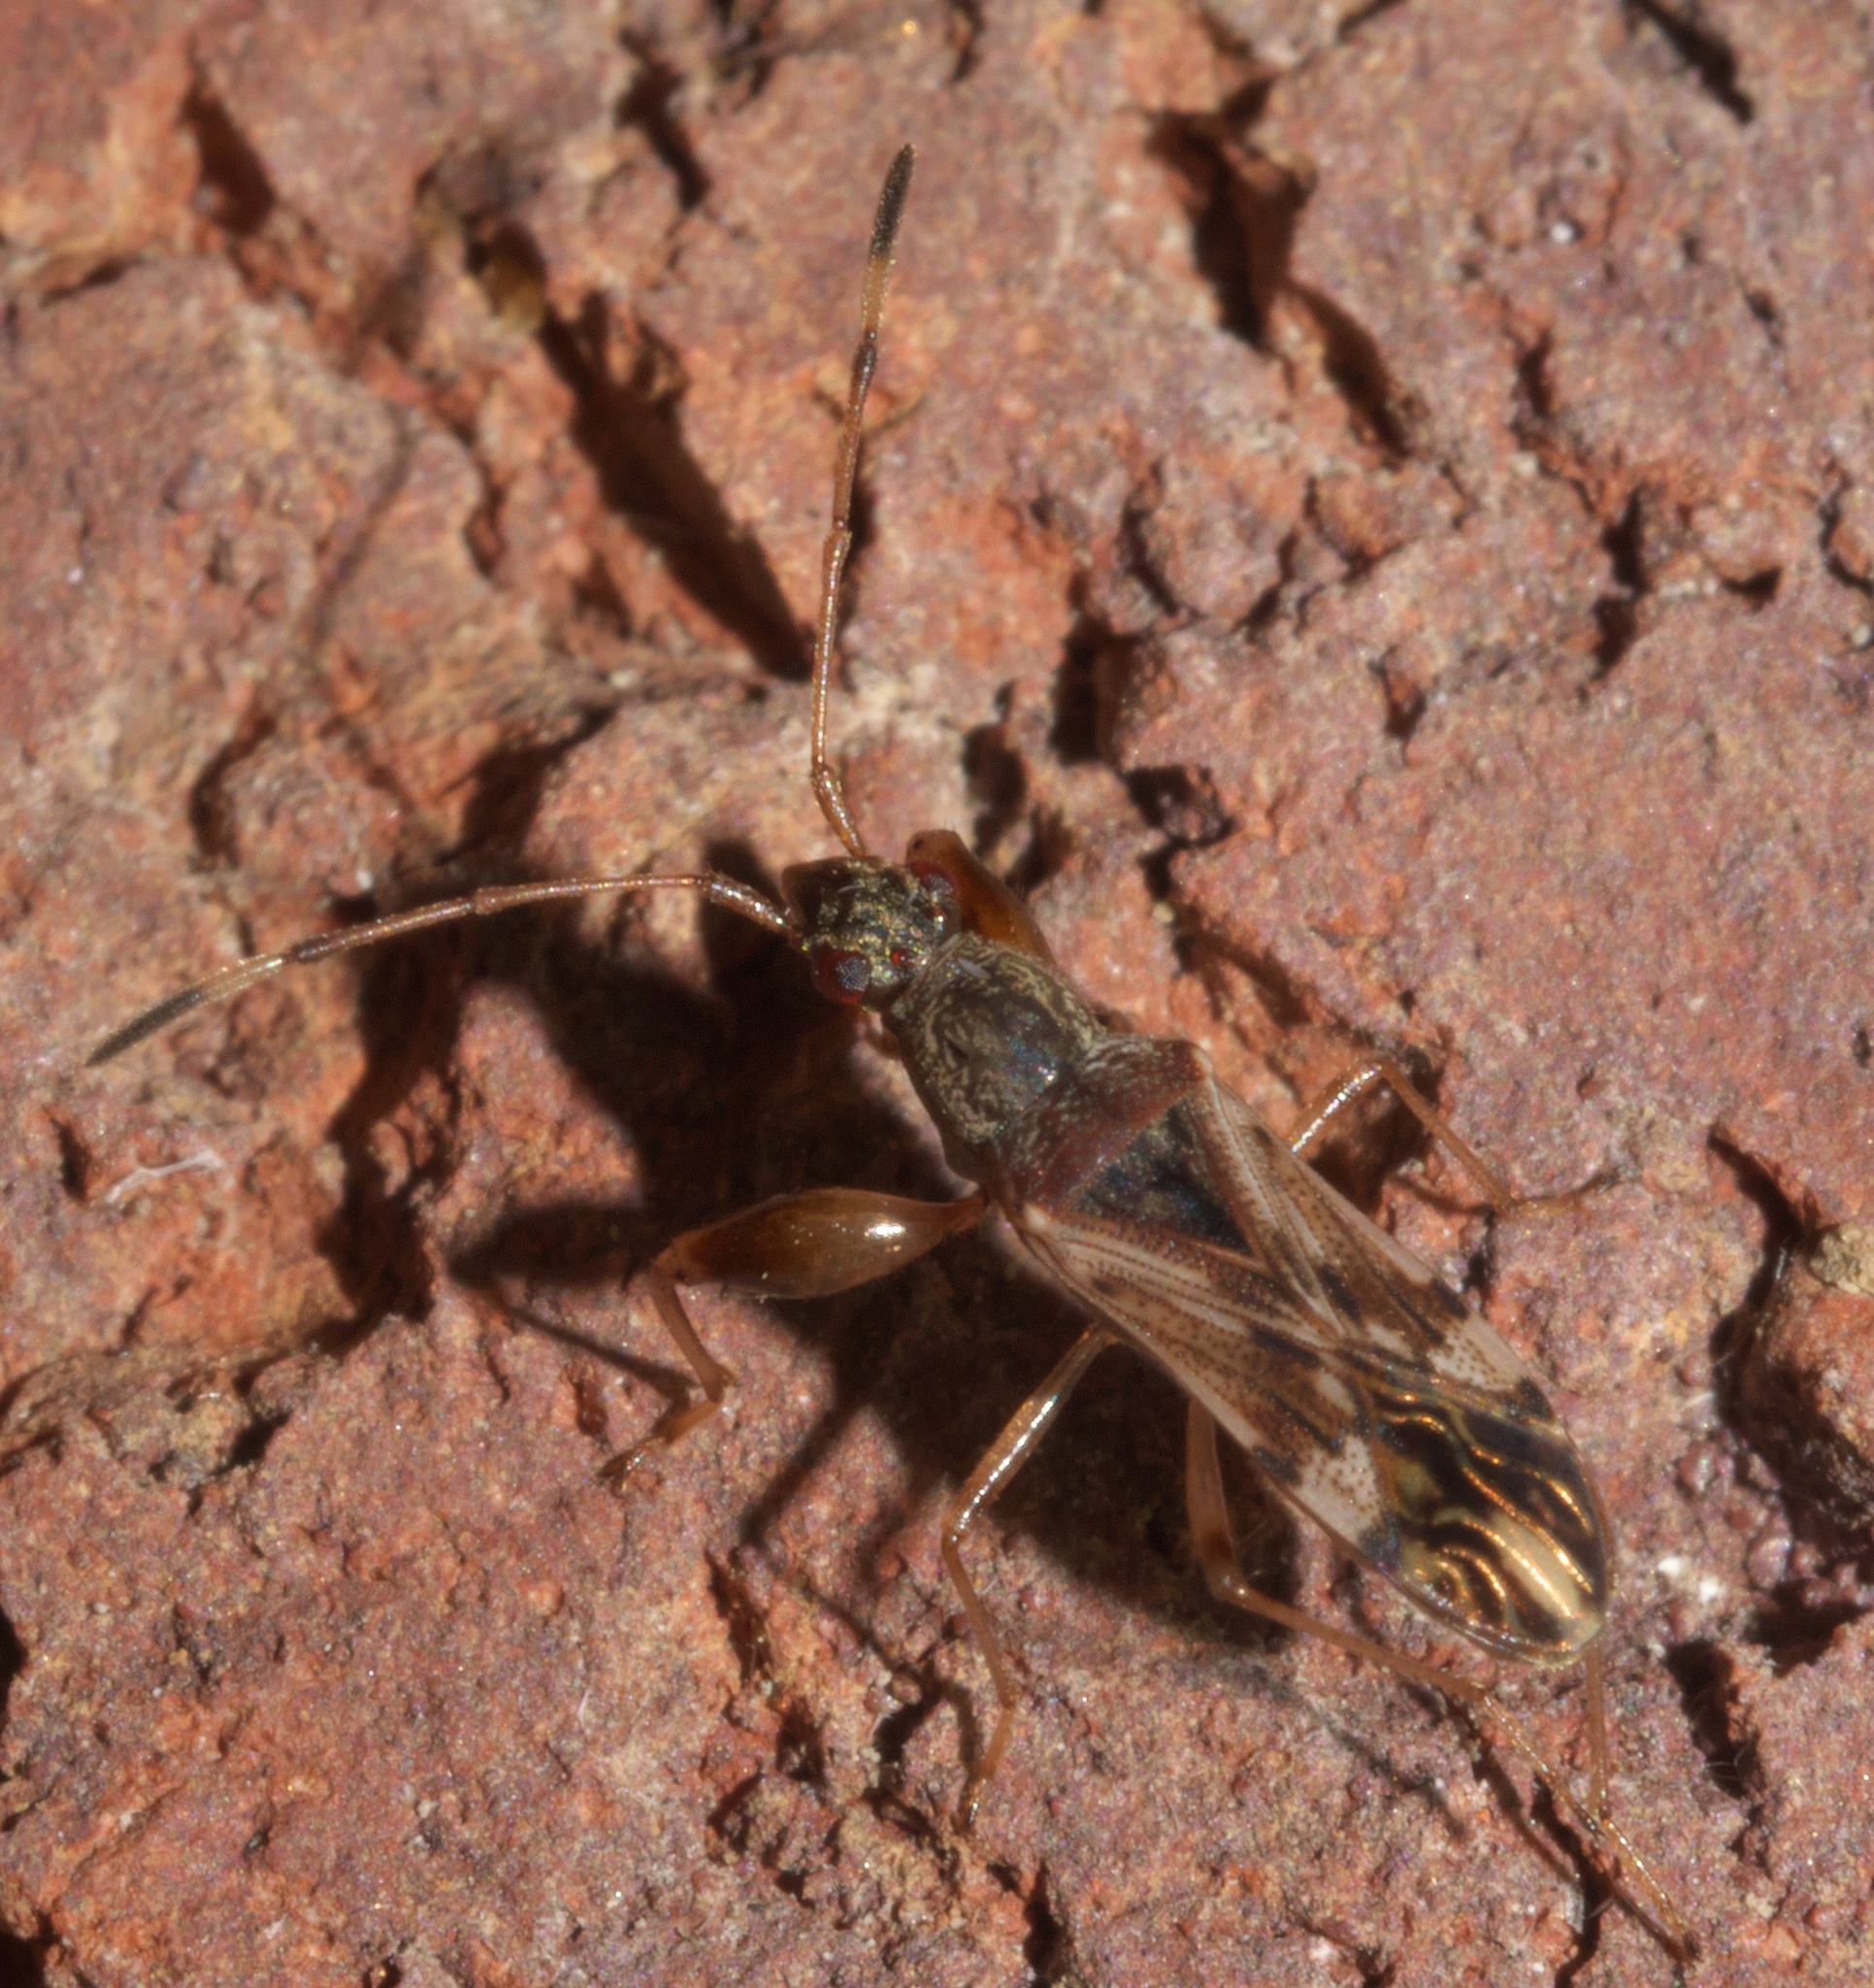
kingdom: Animalia
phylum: Arthropoda
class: Insecta
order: Hemiptera
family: Rhyparochromidae
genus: Neopamera
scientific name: Neopamera albocincta
